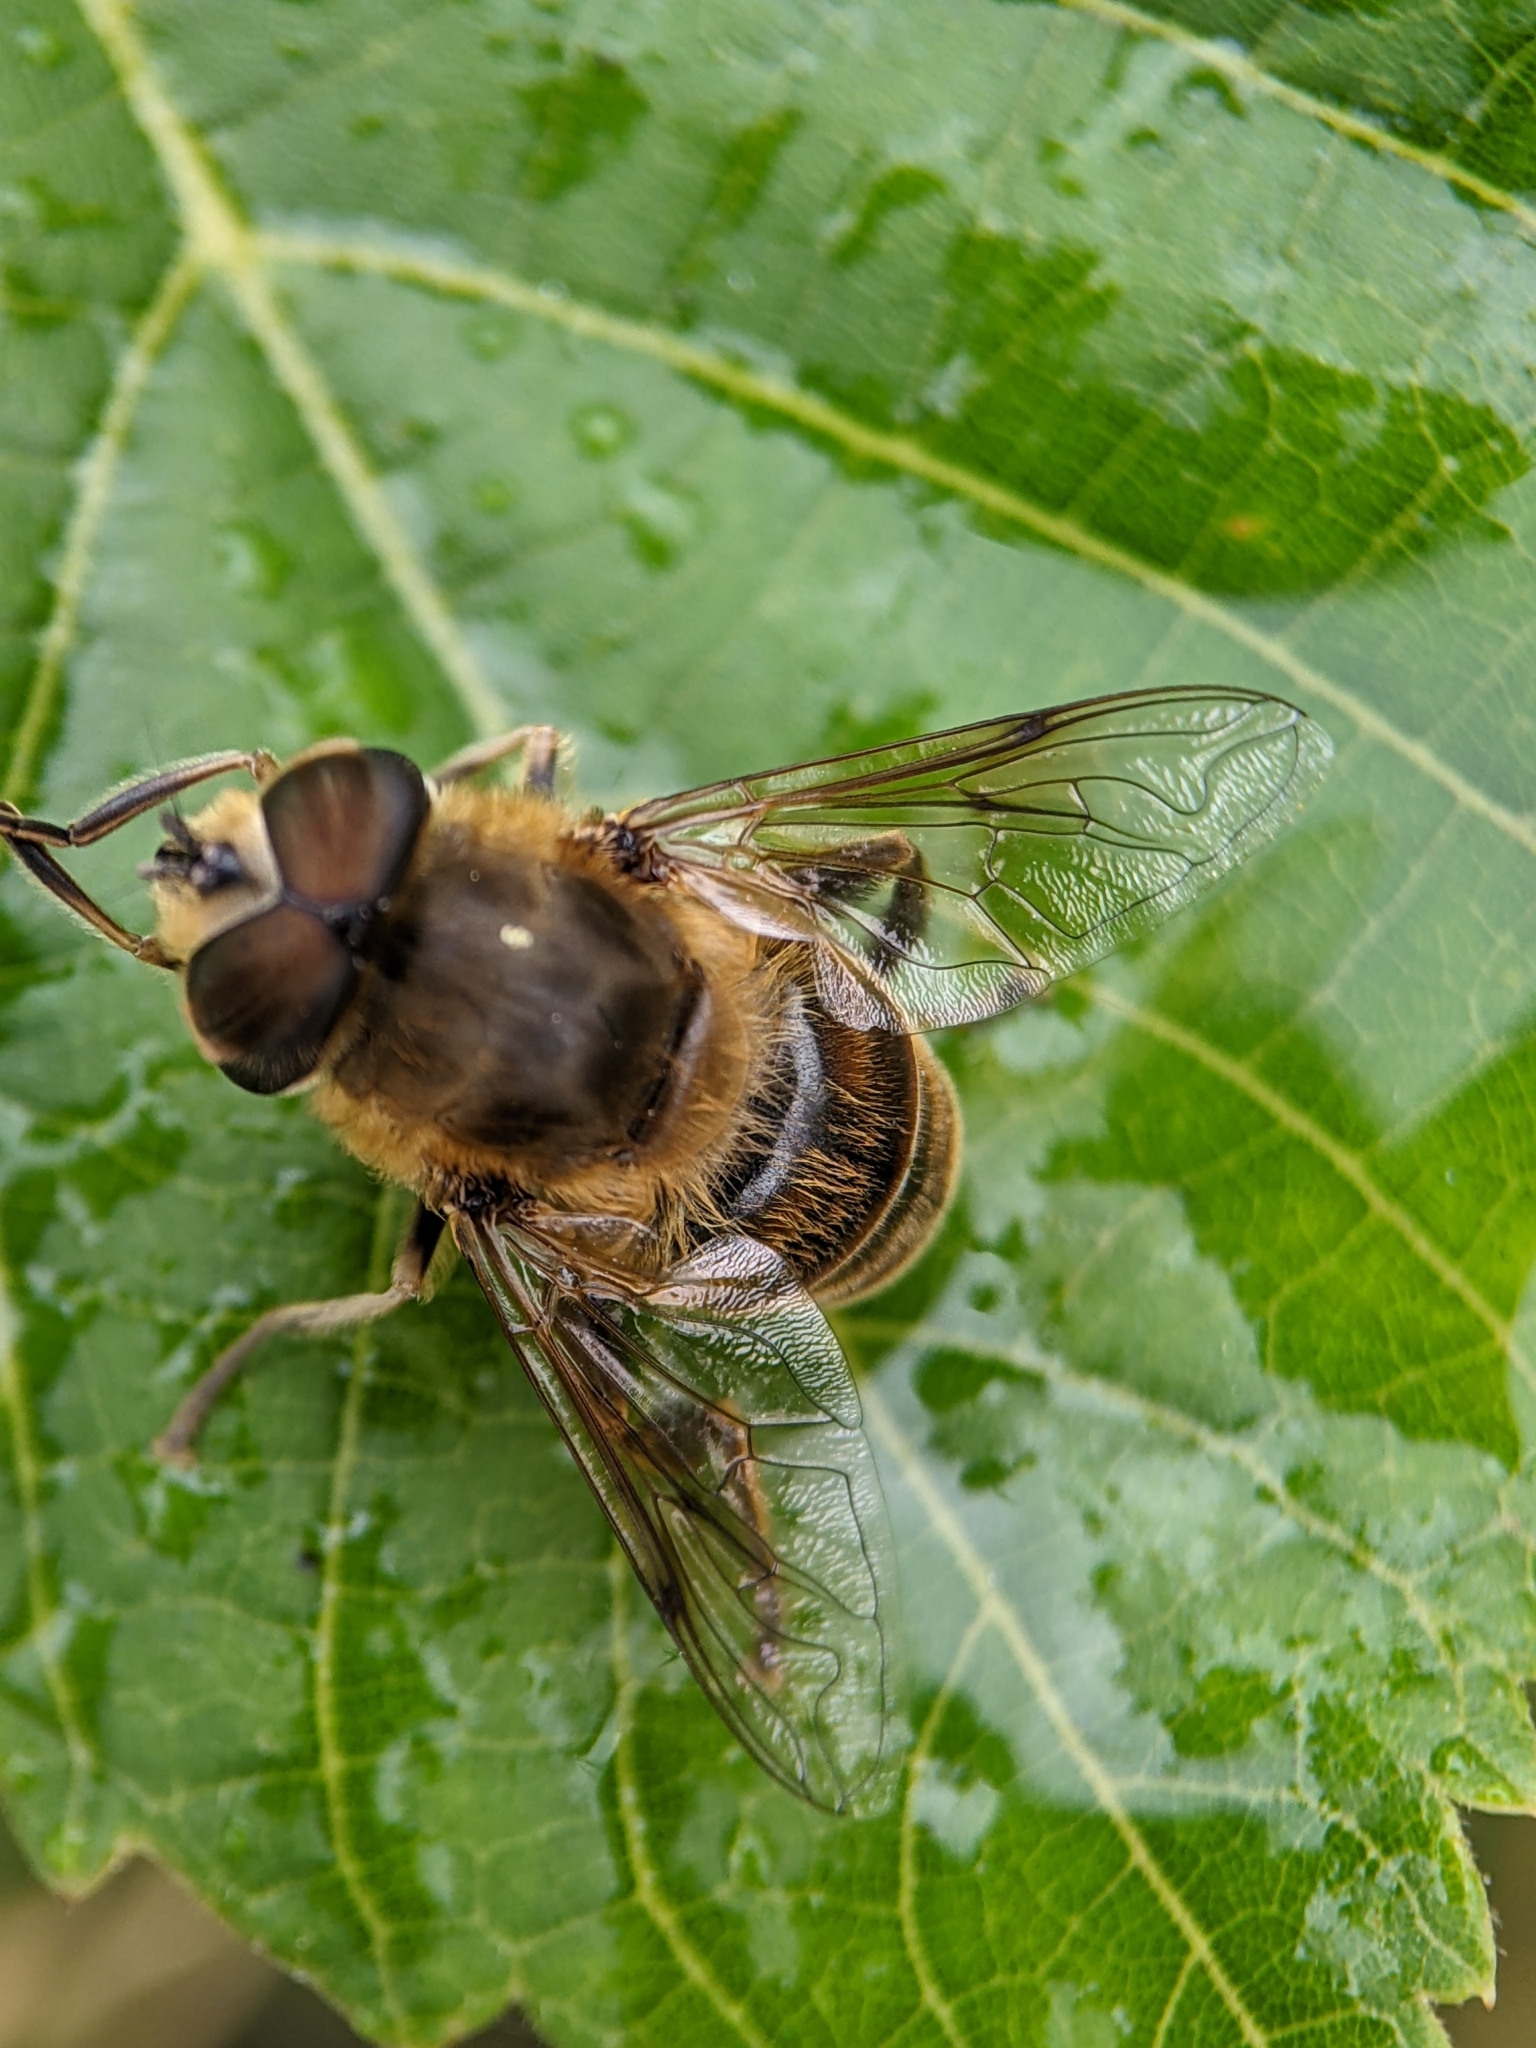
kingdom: Animalia
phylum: Arthropoda
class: Insecta
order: Diptera
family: Syrphidae
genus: Eristalis
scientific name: Eristalis tenax
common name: Drone fly
